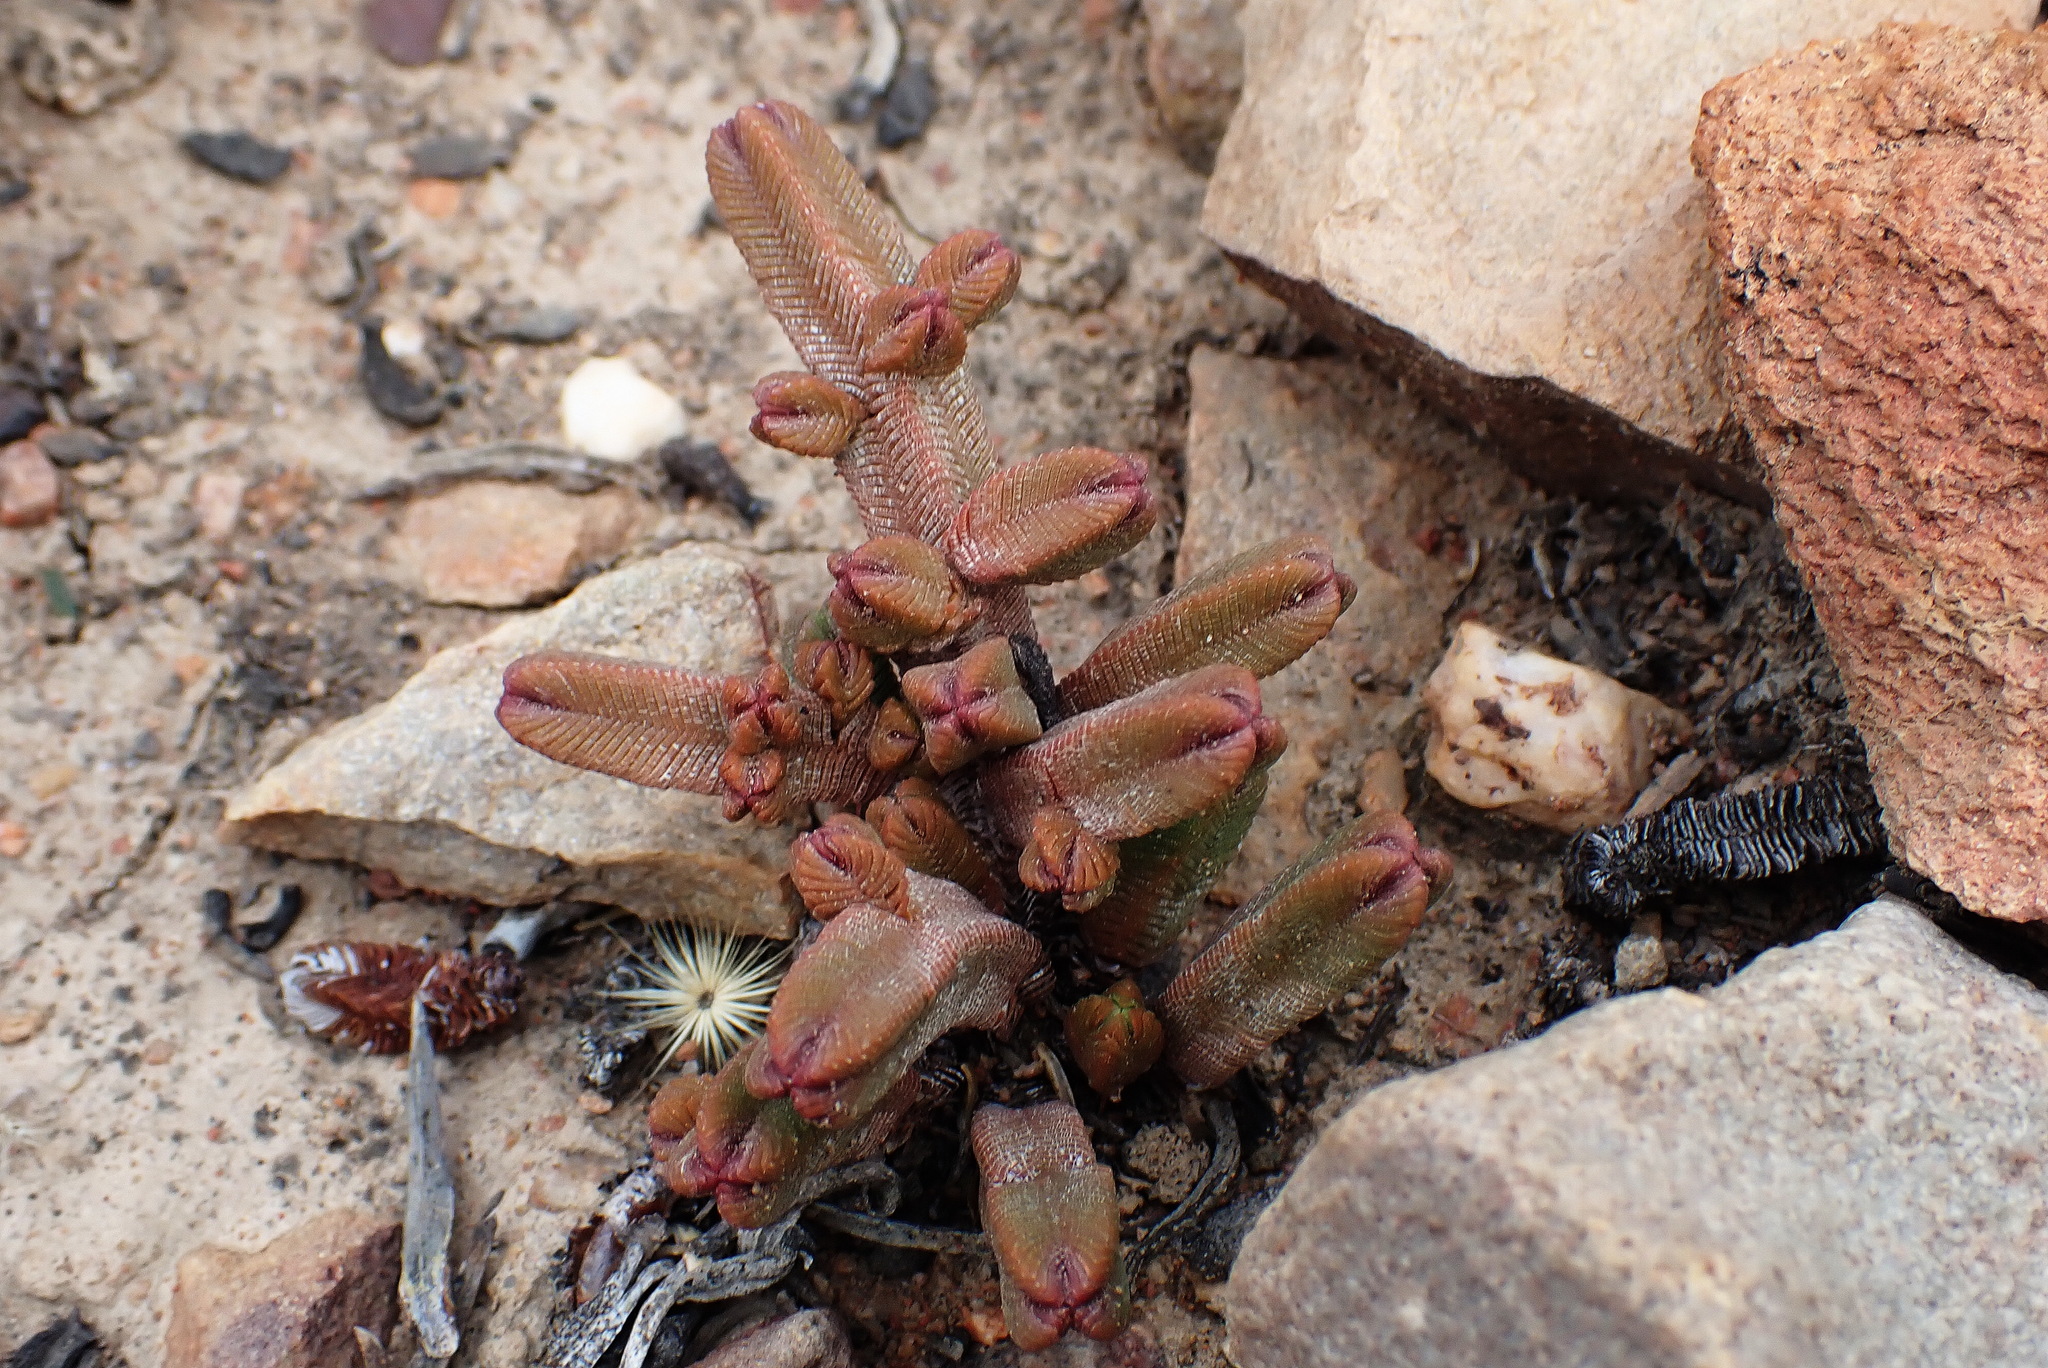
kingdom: Plantae
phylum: Tracheophyta
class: Magnoliopsida
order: Saxifragales
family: Crassulaceae
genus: Crassula
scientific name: Crassula pyramidalis
